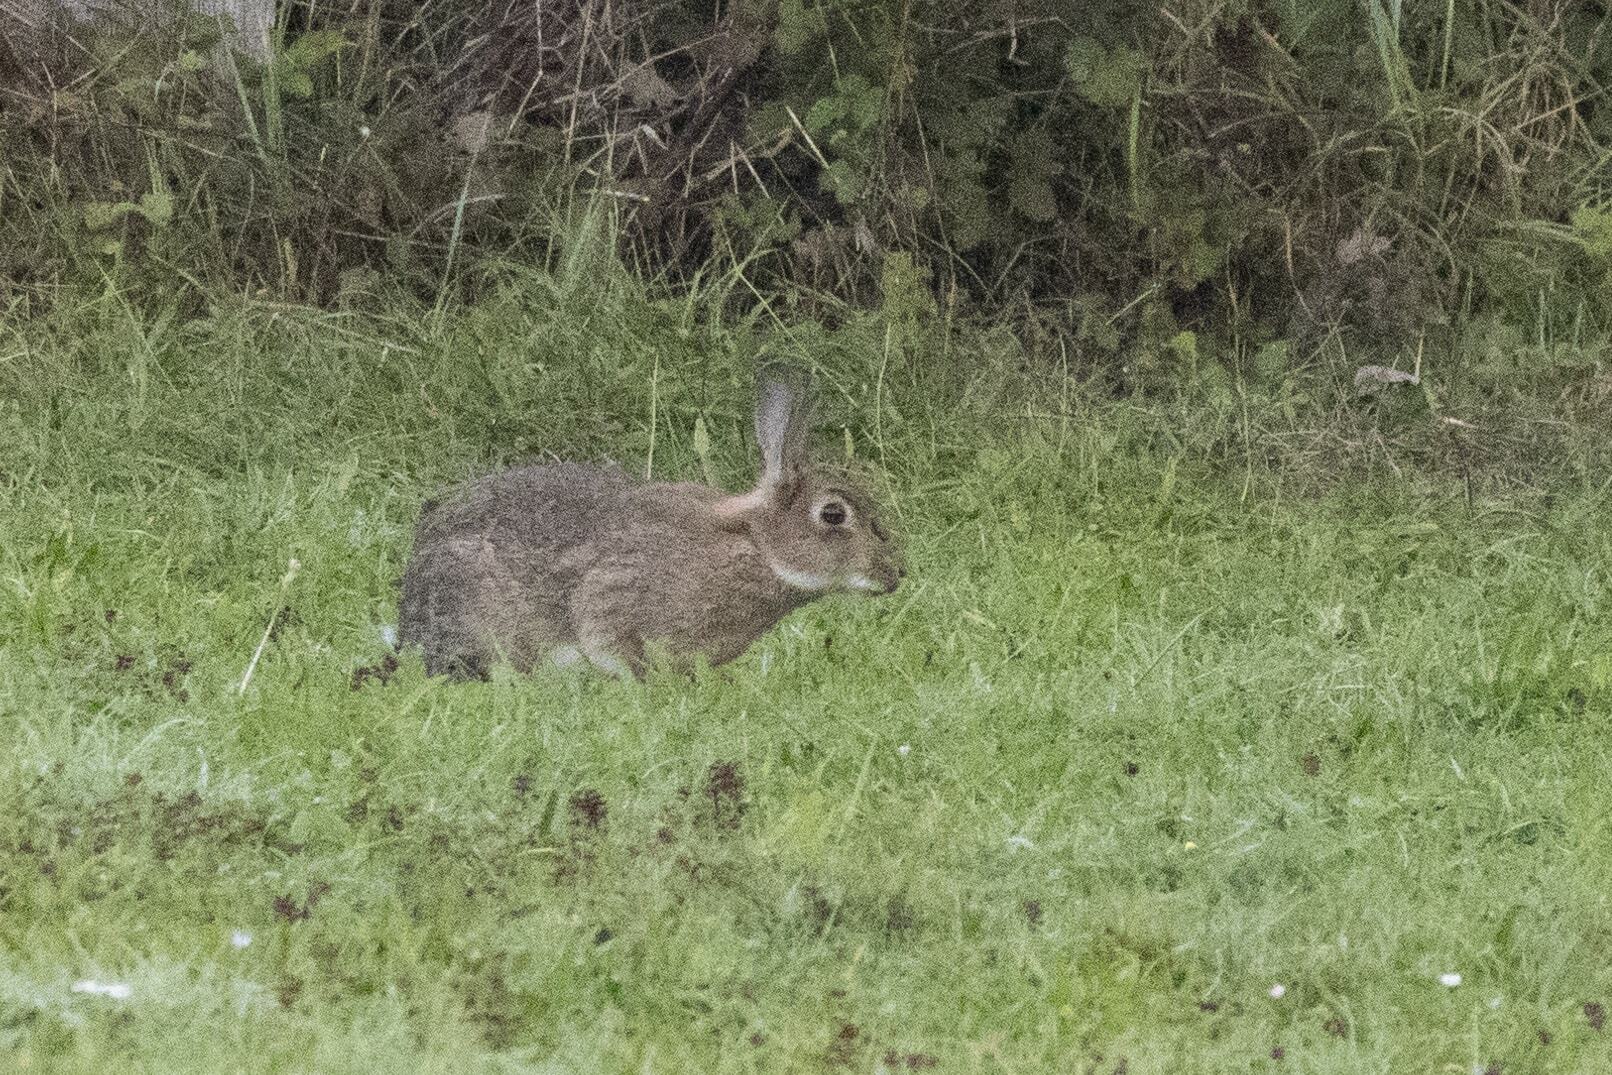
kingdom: Animalia
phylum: Chordata
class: Mammalia
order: Lagomorpha
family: Leporidae
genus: Oryctolagus
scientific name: Oryctolagus cuniculus
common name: European rabbit
